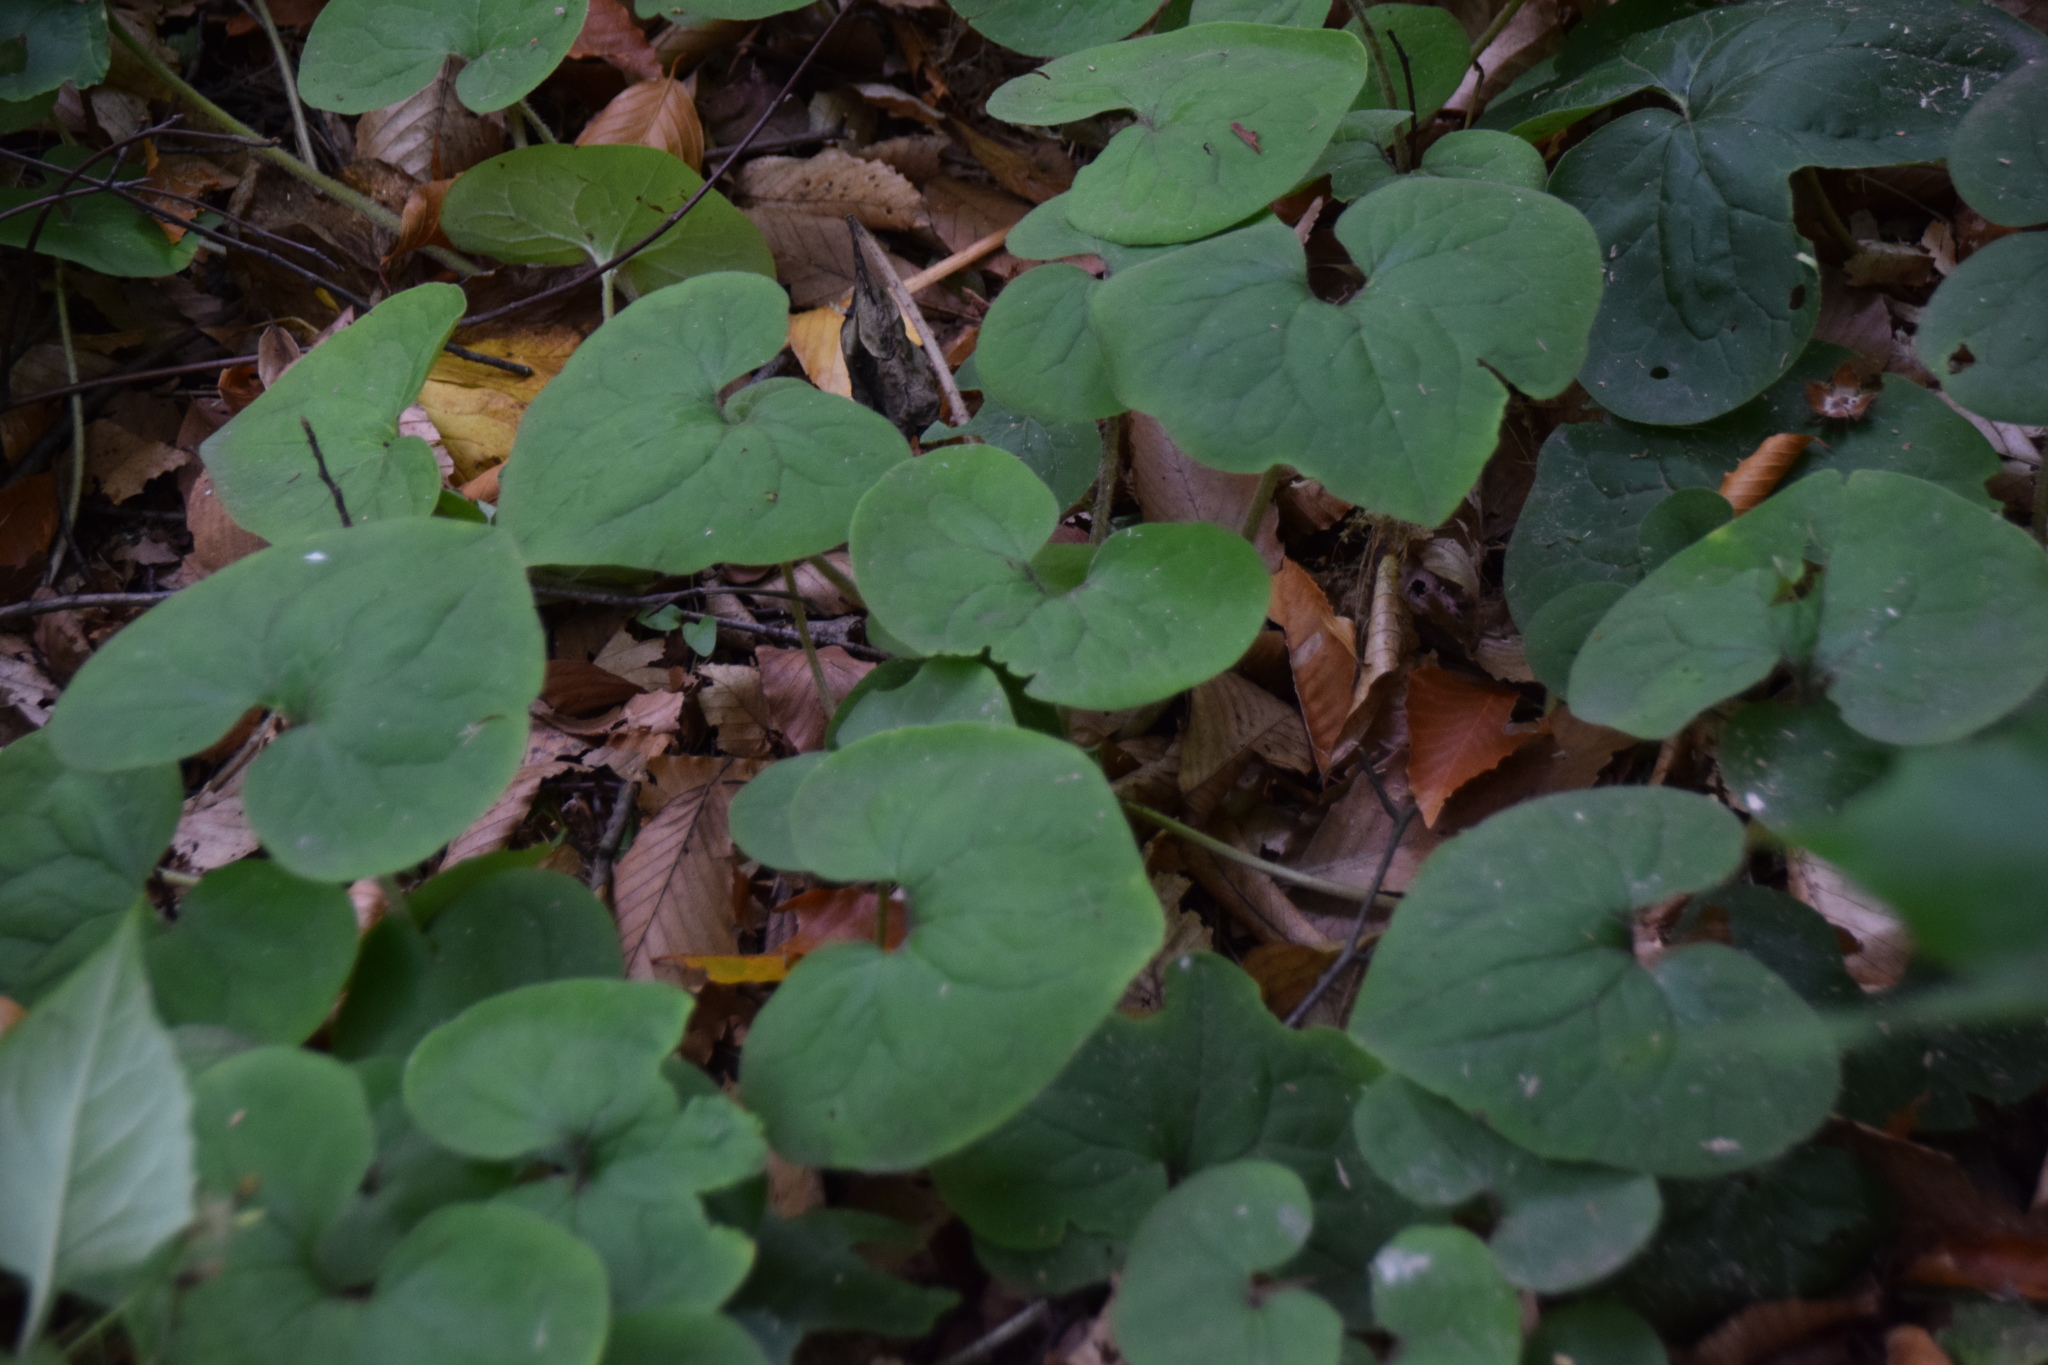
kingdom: Plantae
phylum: Tracheophyta
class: Magnoliopsida
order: Piperales
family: Aristolochiaceae
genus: Asarum
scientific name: Asarum canadense
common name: Wild ginger
